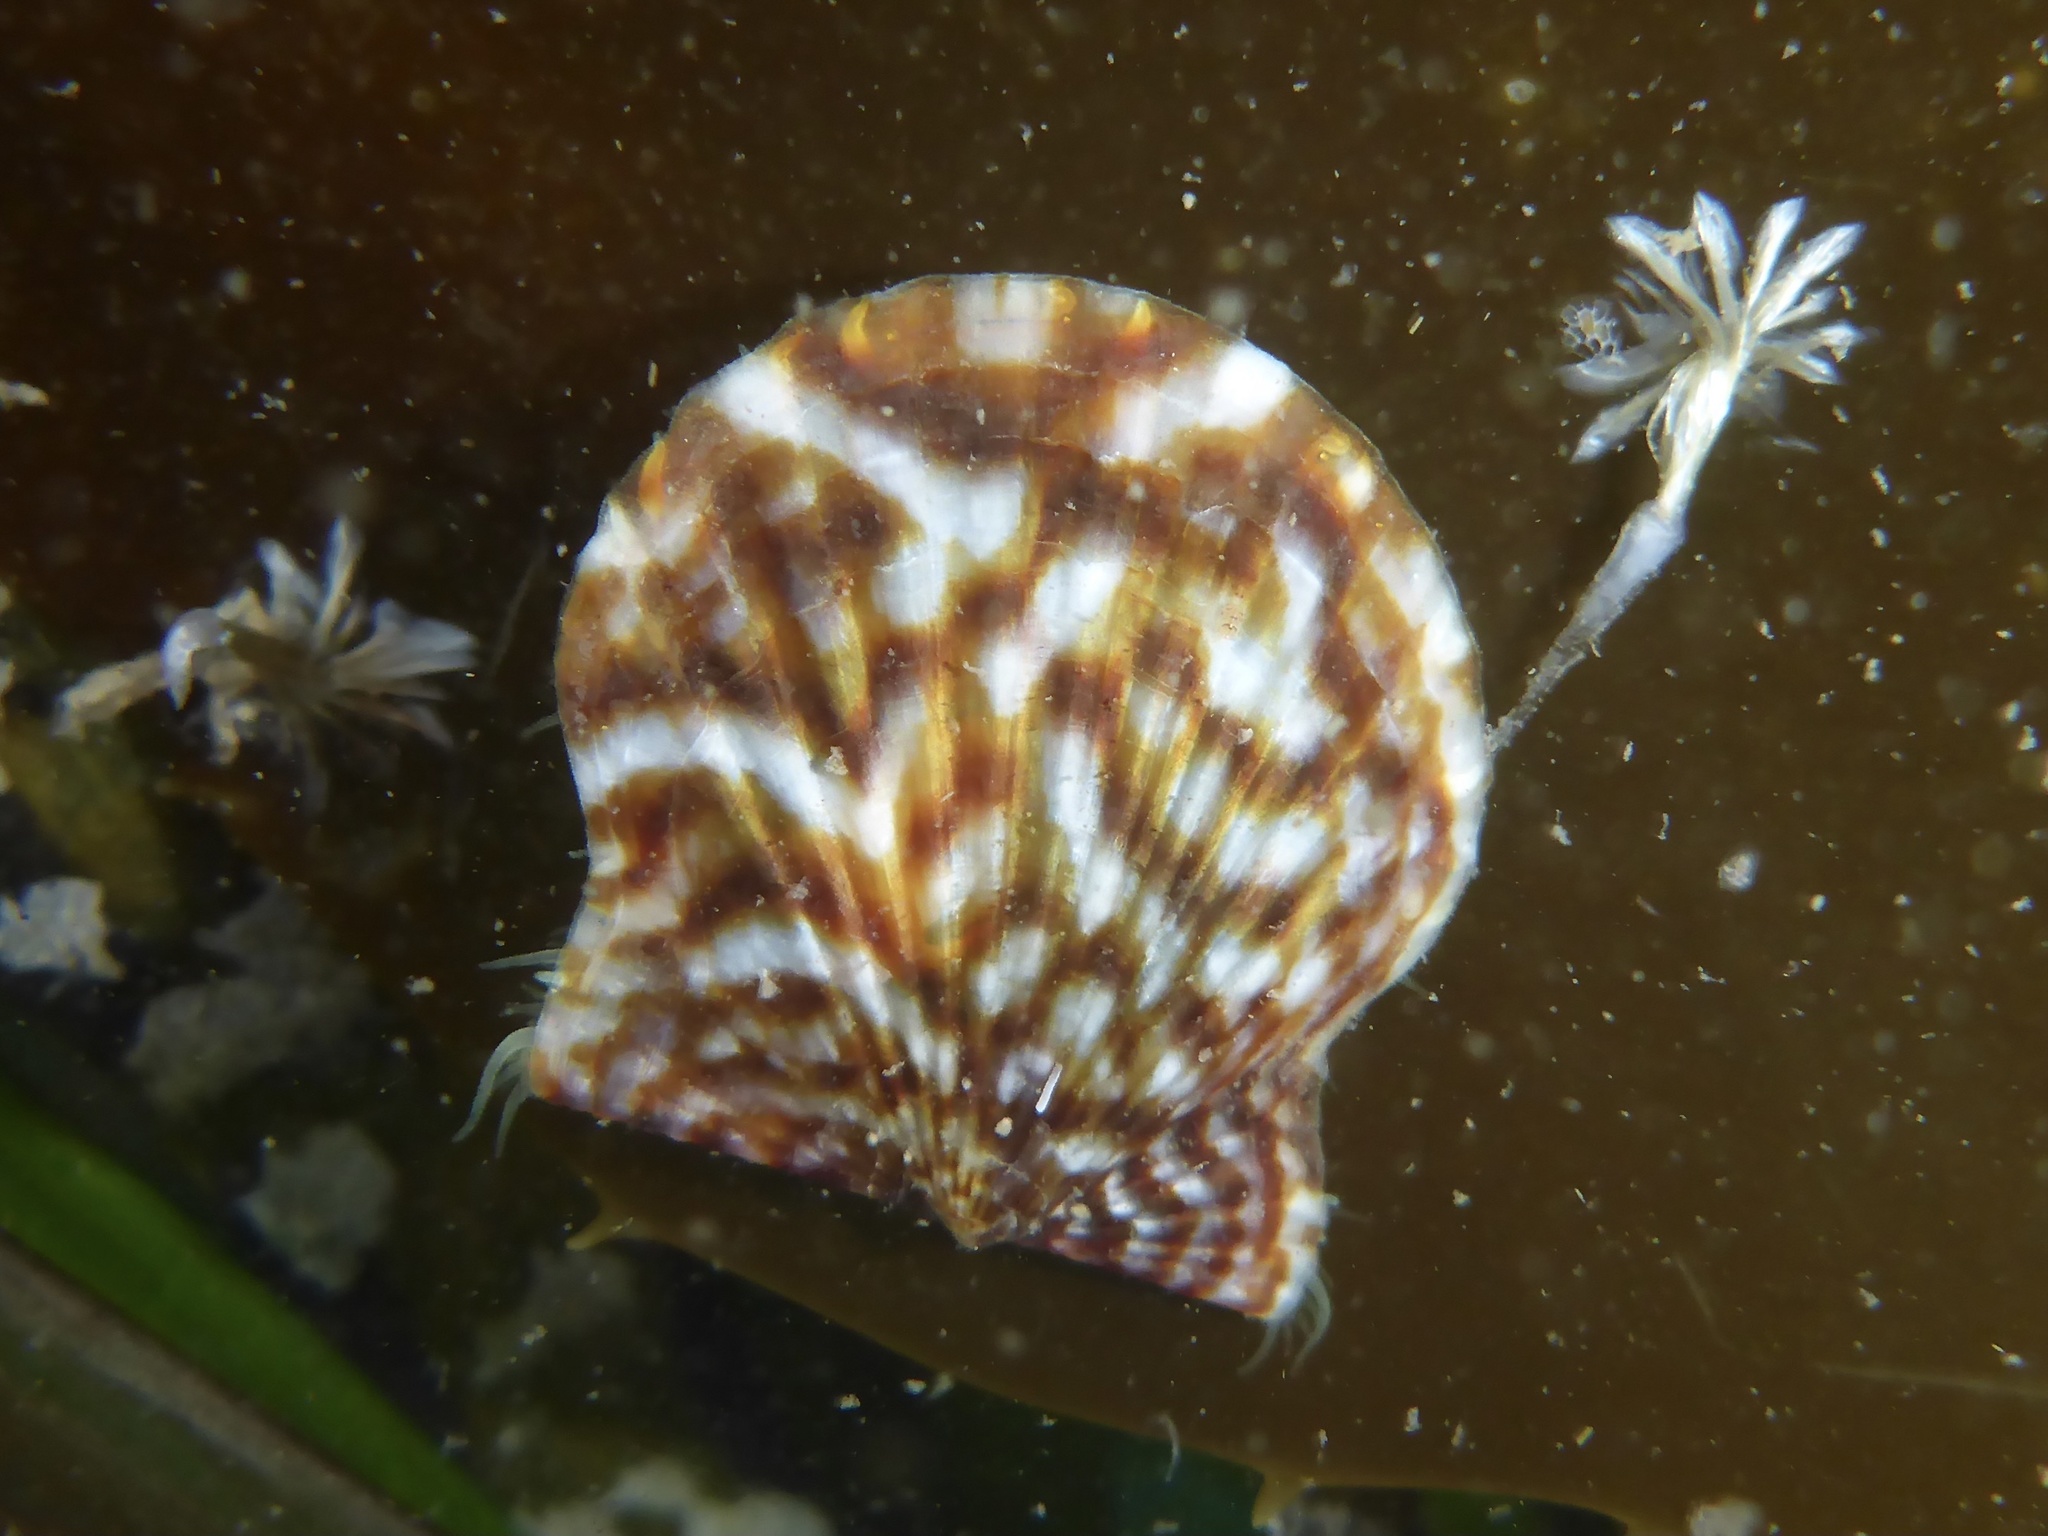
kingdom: Animalia
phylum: Mollusca
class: Bivalvia
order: Pectinida
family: Pectinidae
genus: Leptopecten
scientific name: Leptopecten latiauratus
